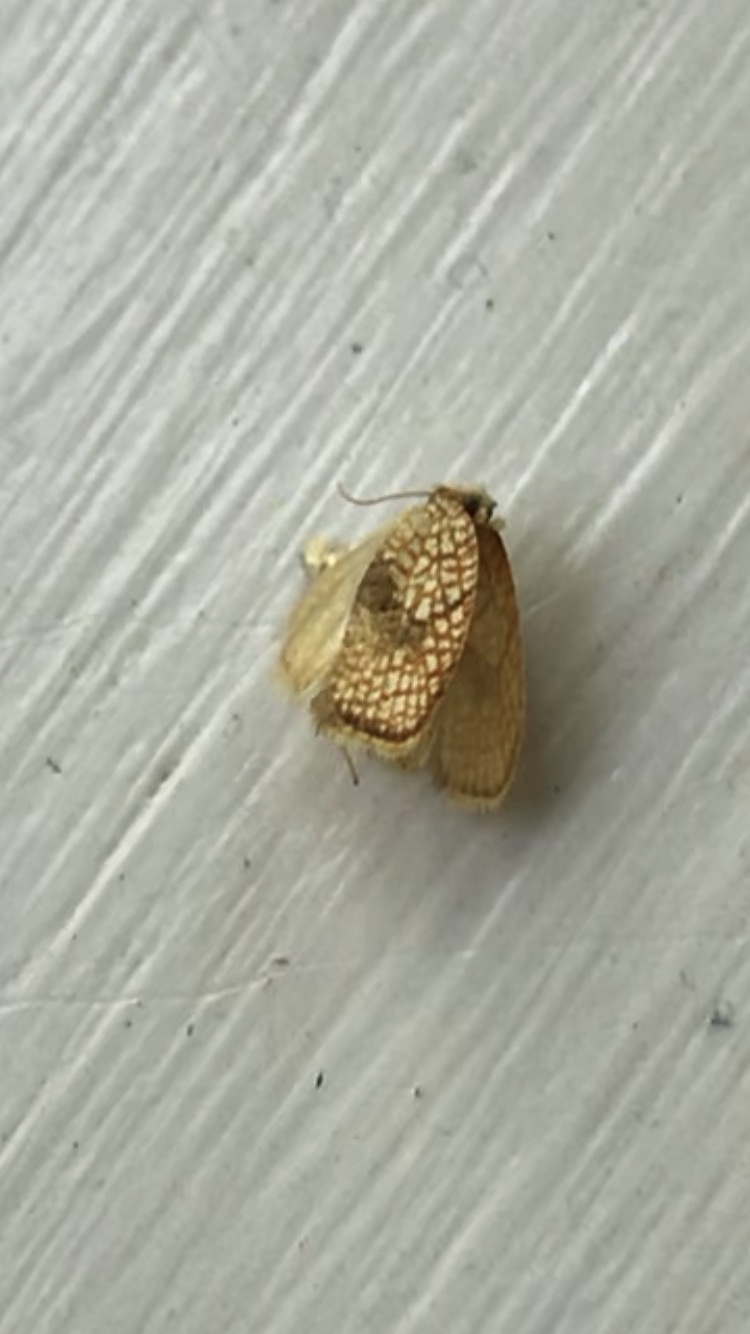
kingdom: Animalia
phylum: Arthropoda
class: Insecta
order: Lepidoptera
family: Tortricidae
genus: Acleris
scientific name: Acleris forsskaleana
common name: Maple button
